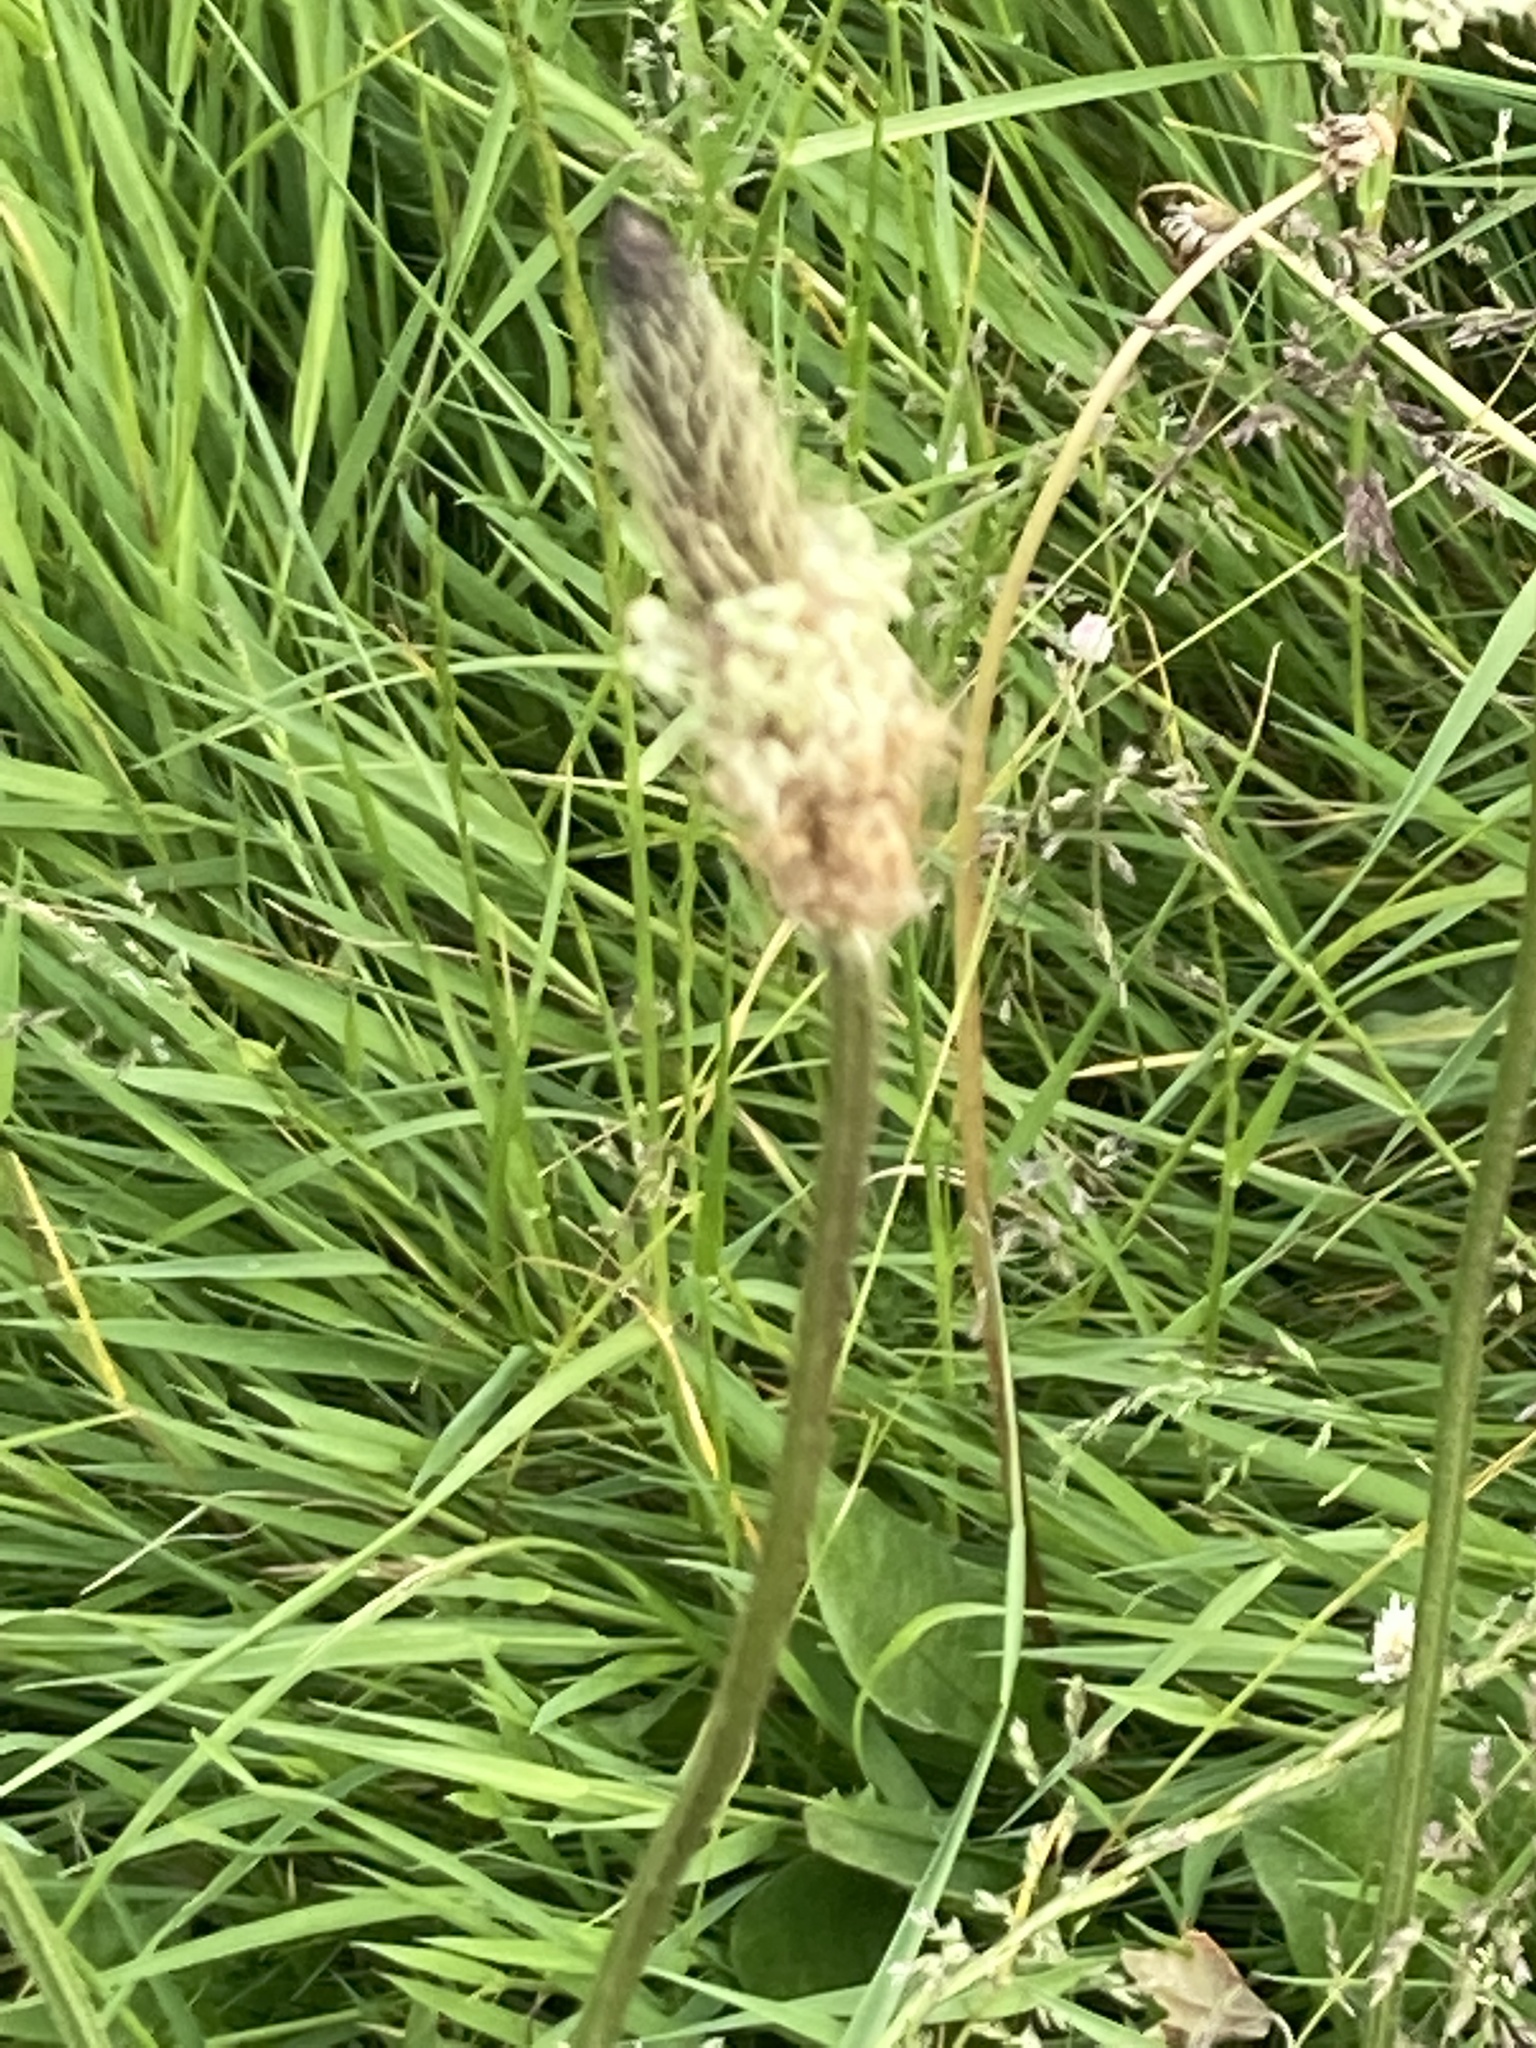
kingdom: Plantae
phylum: Tracheophyta
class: Magnoliopsida
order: Lamiales
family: Plantaginaceae
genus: Plantago
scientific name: Plantago lanceolata
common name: Ribwort plantain
